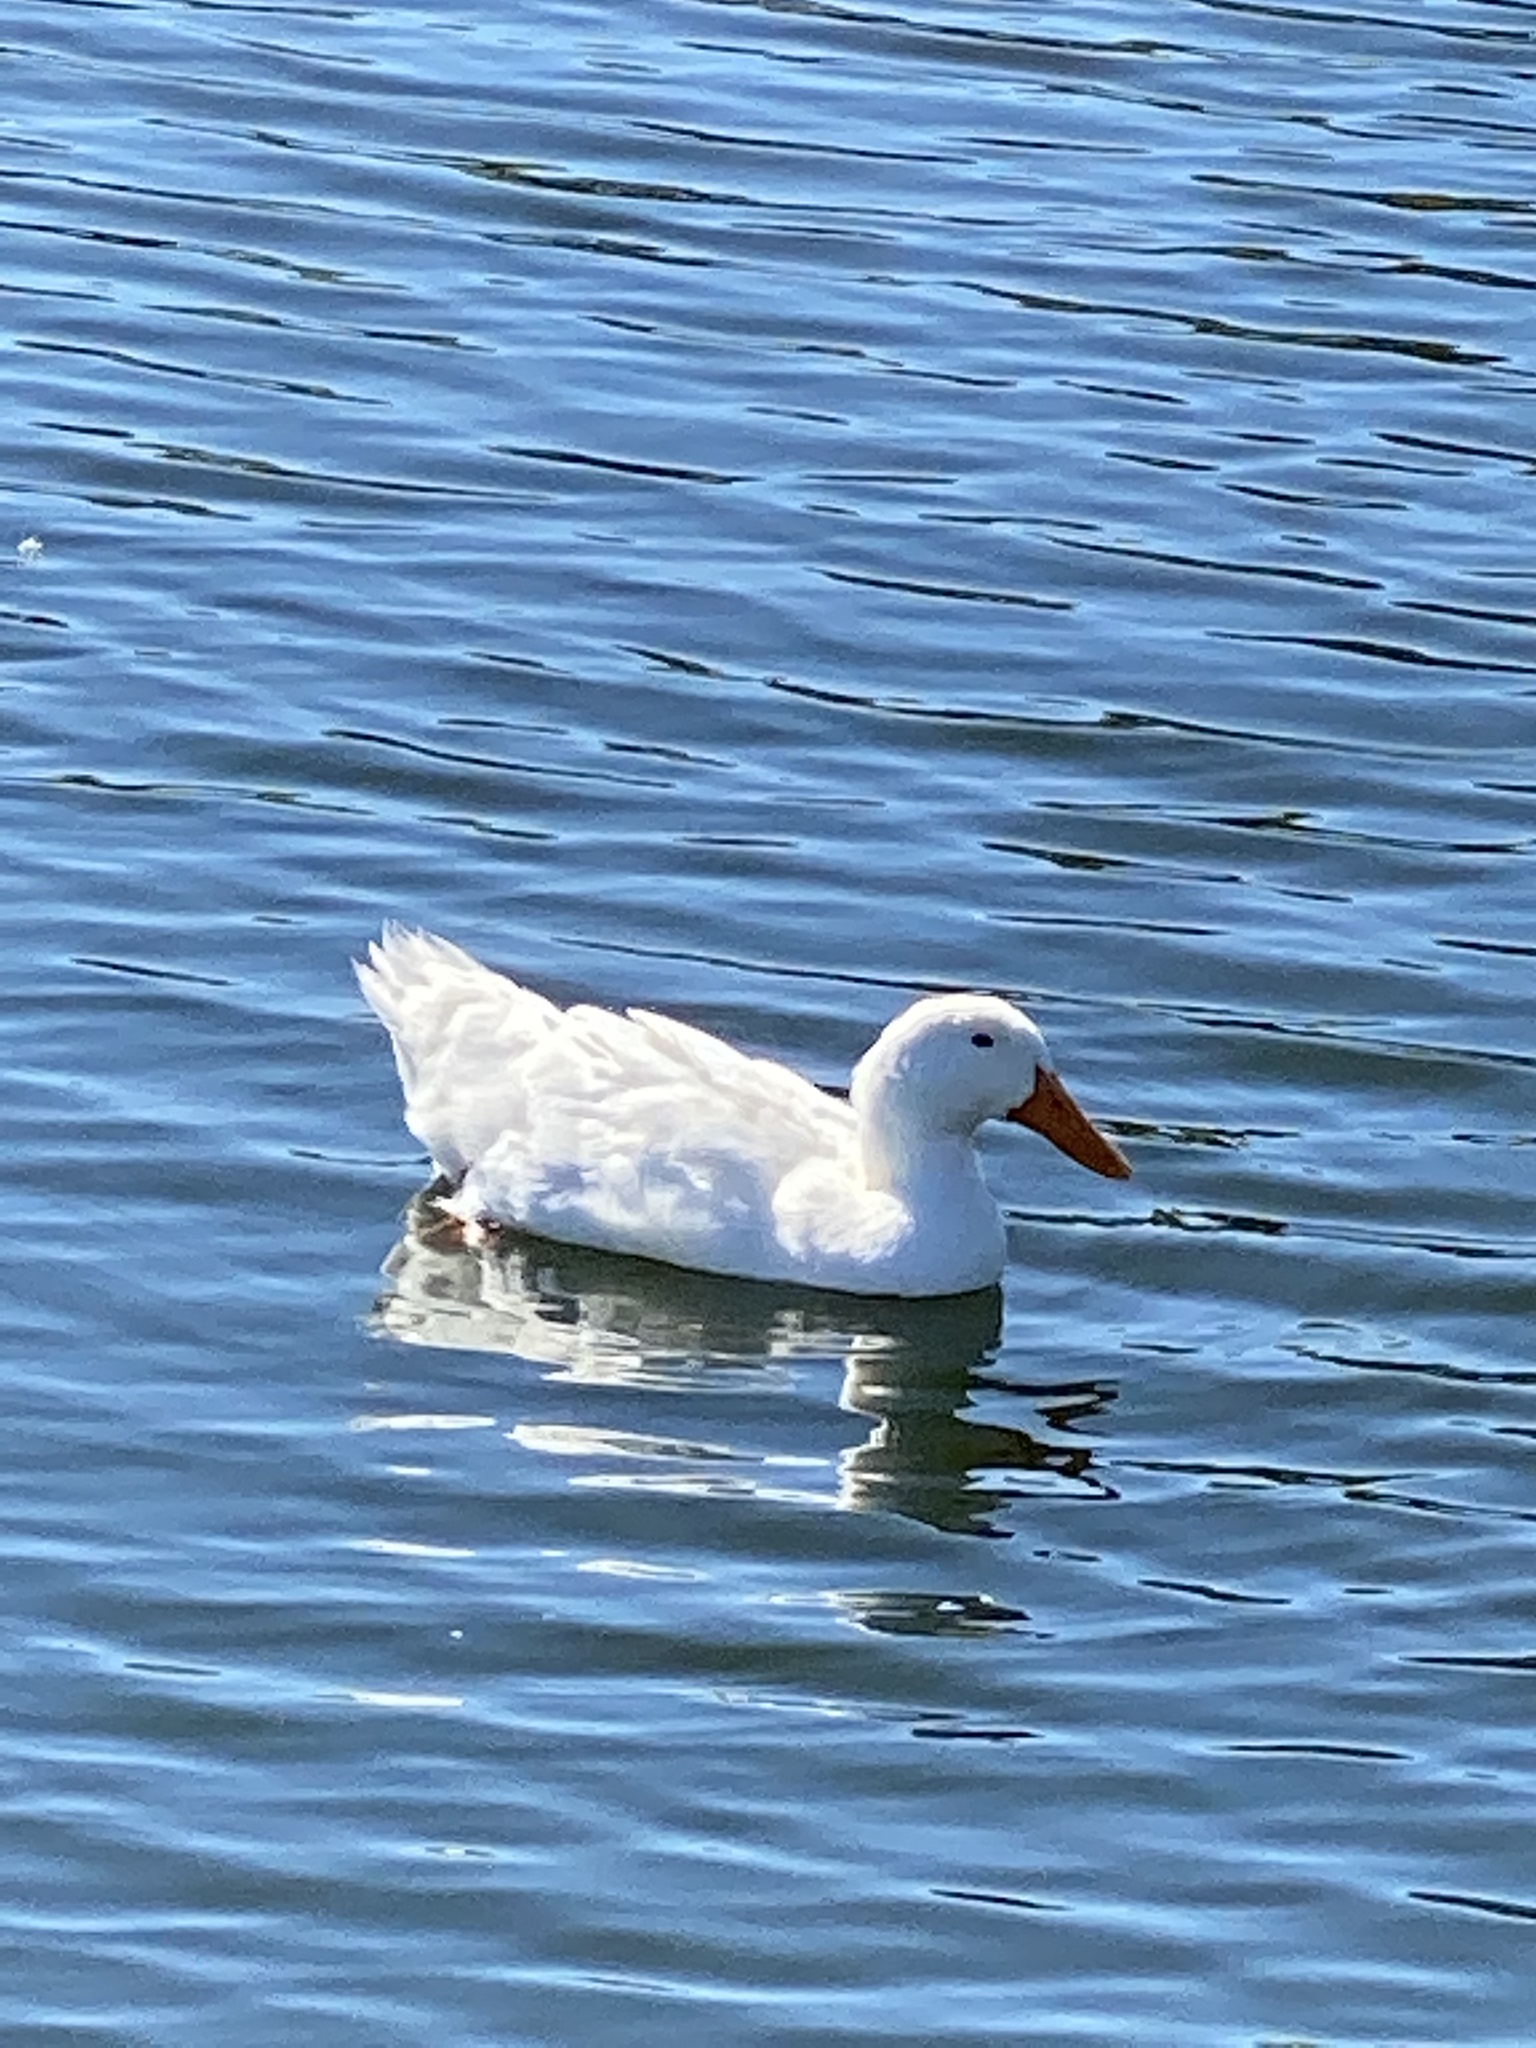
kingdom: Animalia
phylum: Chordata
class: Aves
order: Anseriformes
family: Anatidae
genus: Anas
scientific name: Anas platyrhynchos
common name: Mallard
